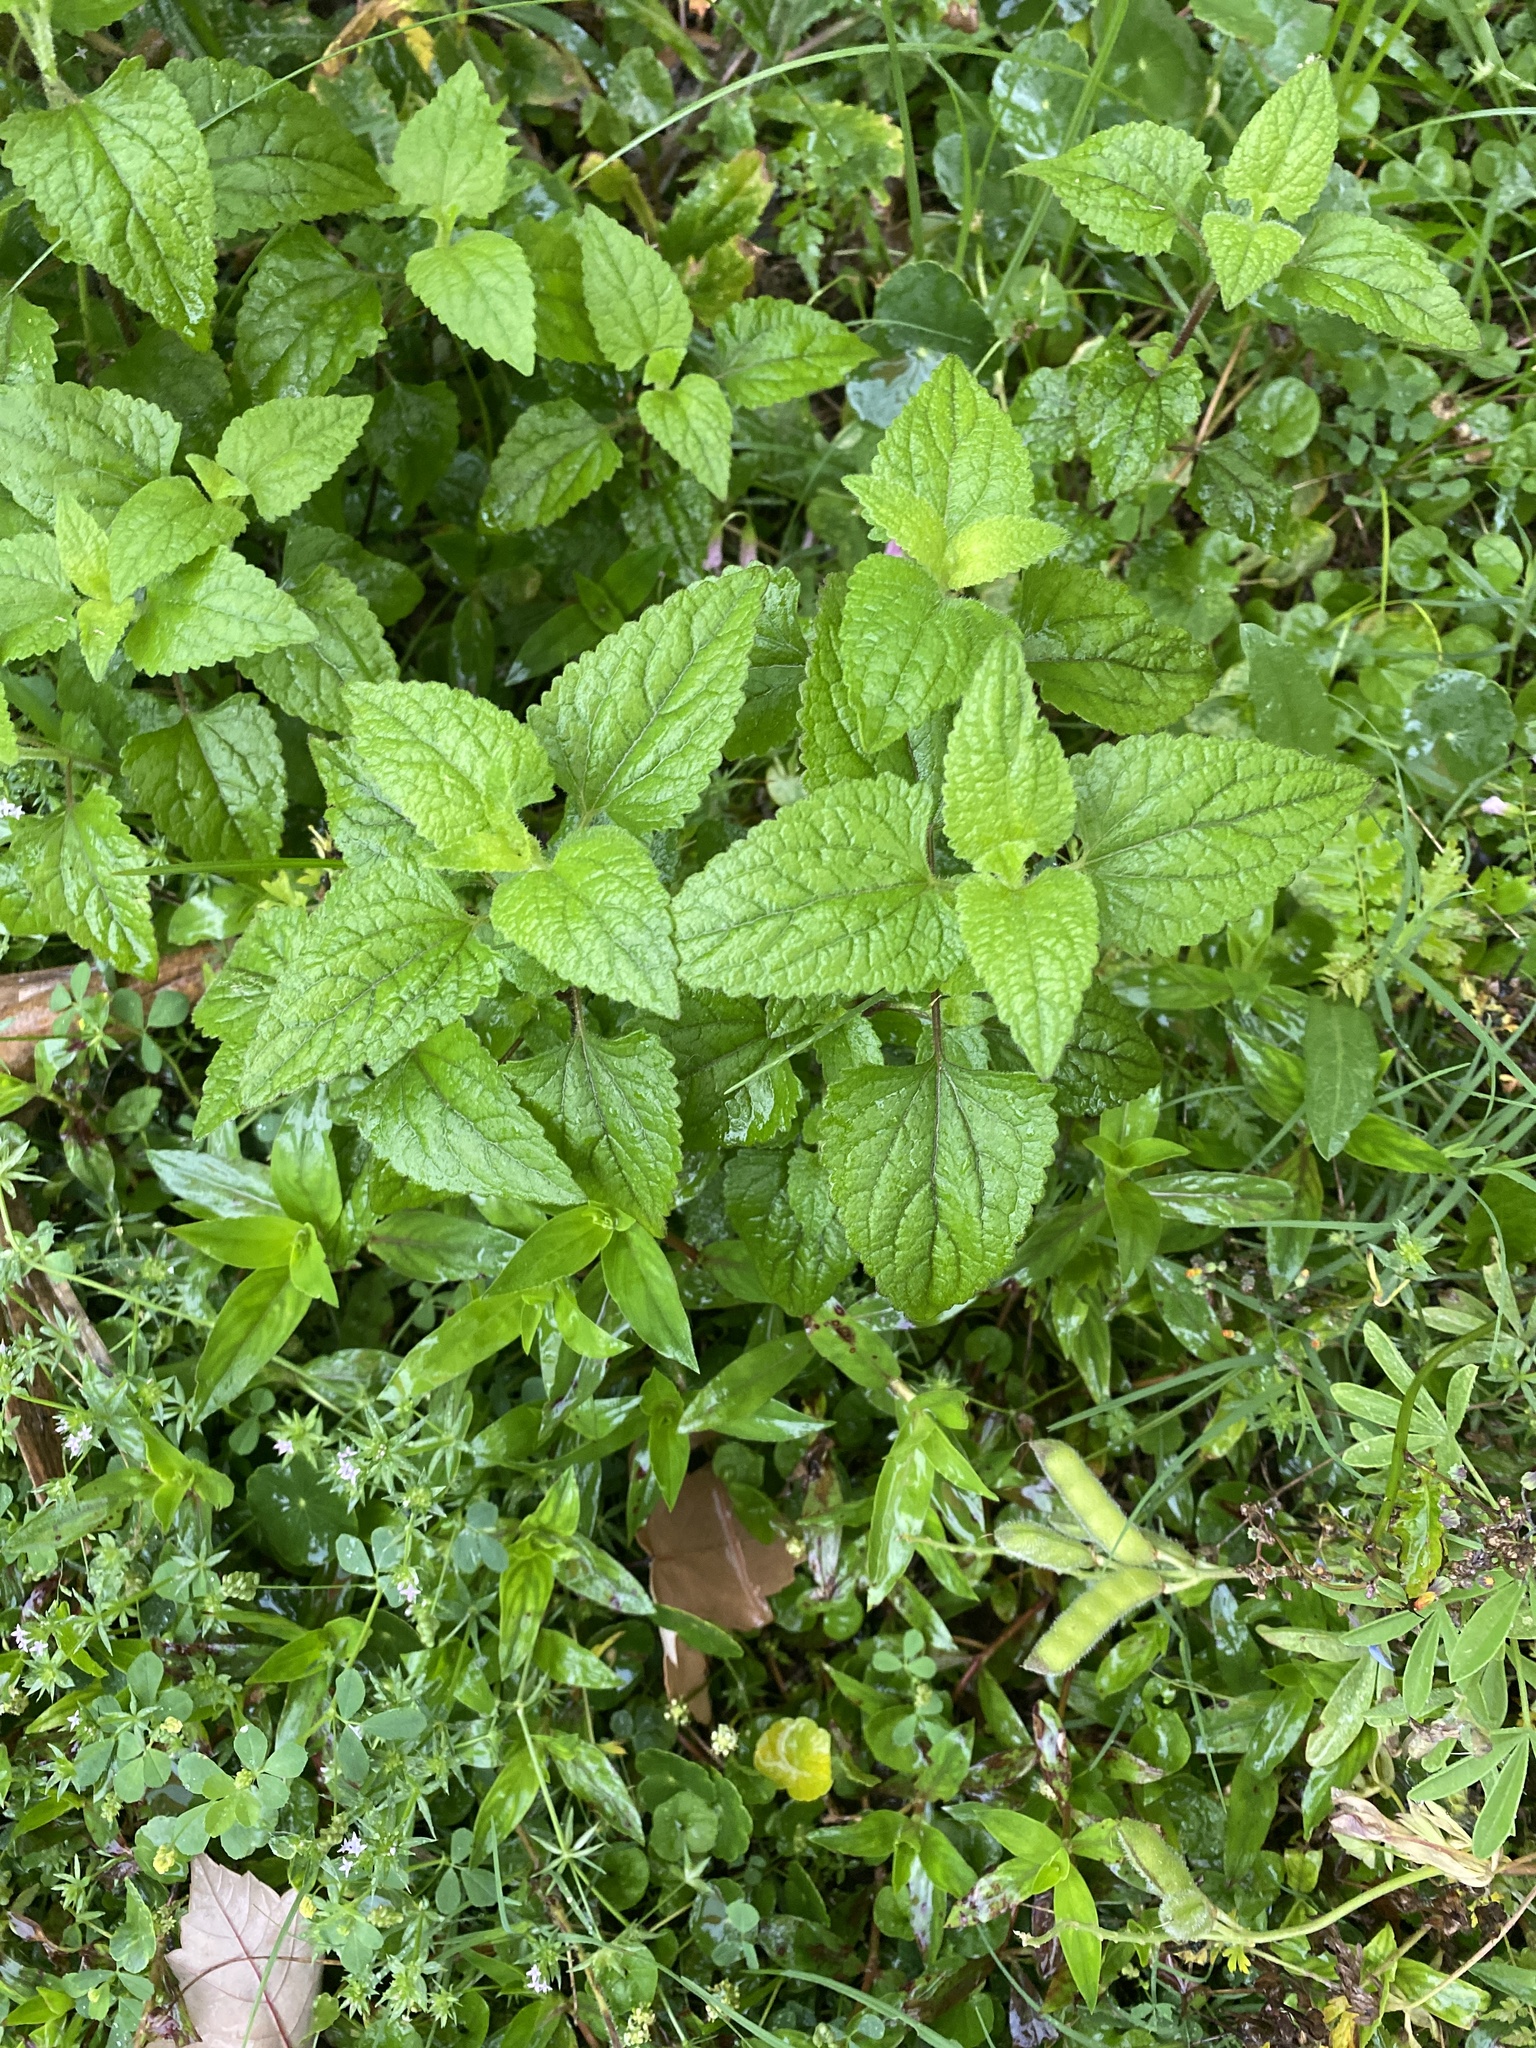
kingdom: Plantae
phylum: Tracheophyta
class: Magnoliopsida
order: Asterales
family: Asteraceae
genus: Conoclinium
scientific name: Conoclinium coelestinum
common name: Blue mistflower
